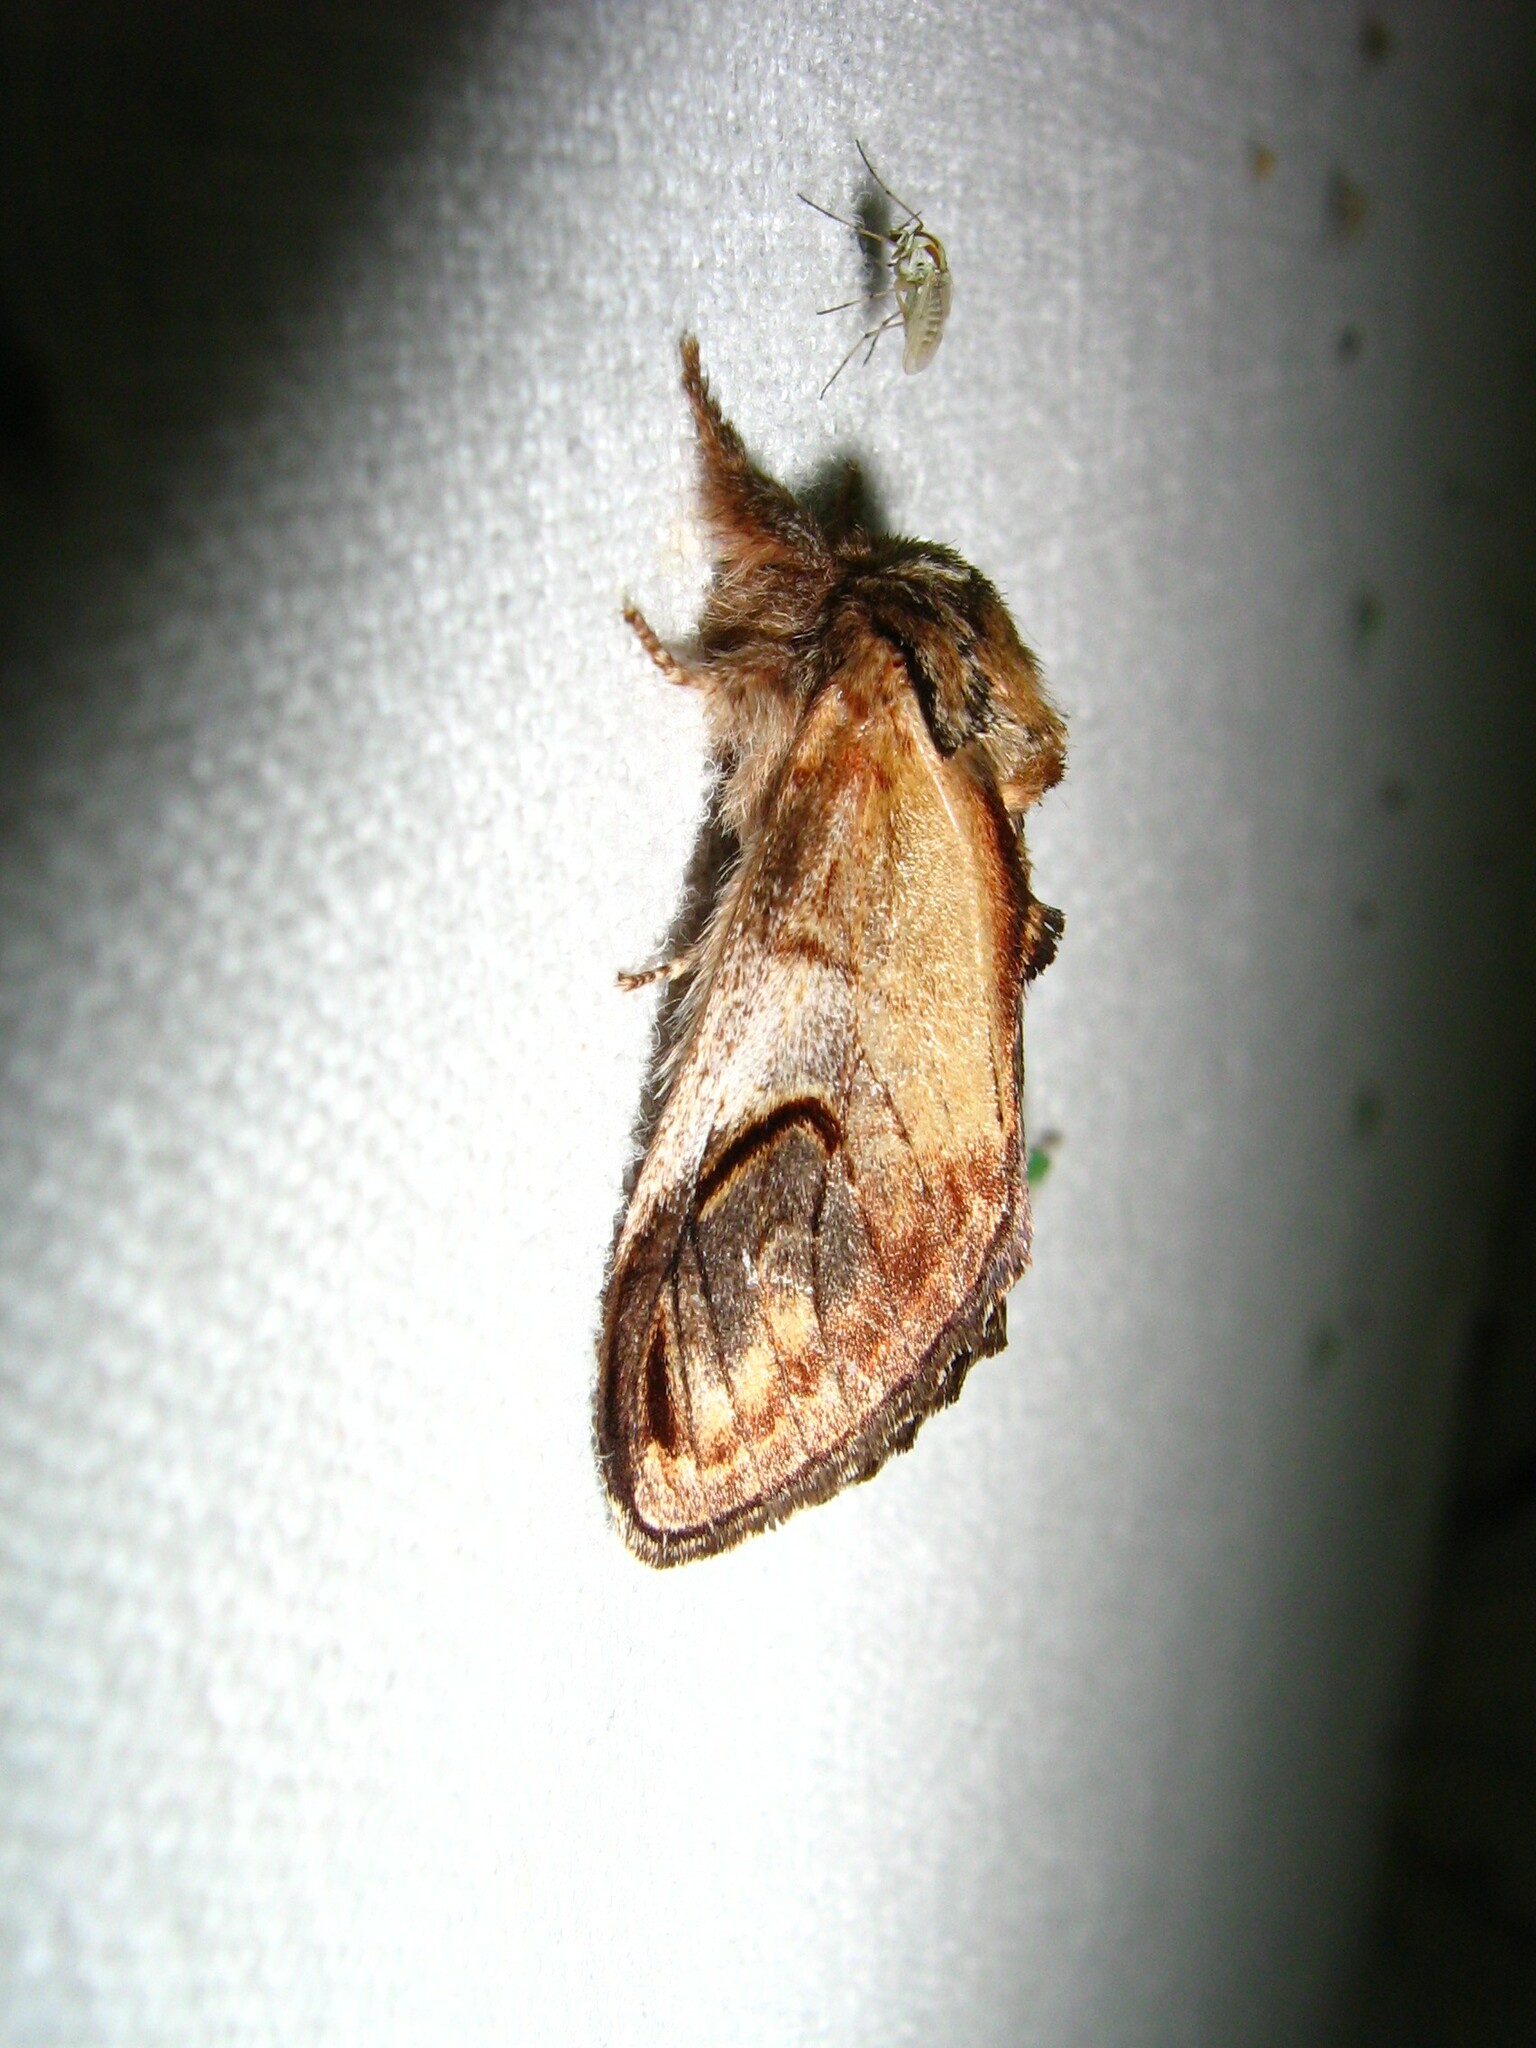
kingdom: Animalia
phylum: Arthropoda
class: Insecta
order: Lepidoptera
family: Notodontidae
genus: Notodonta
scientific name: Notodonta ziczac
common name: Pebble prominent
